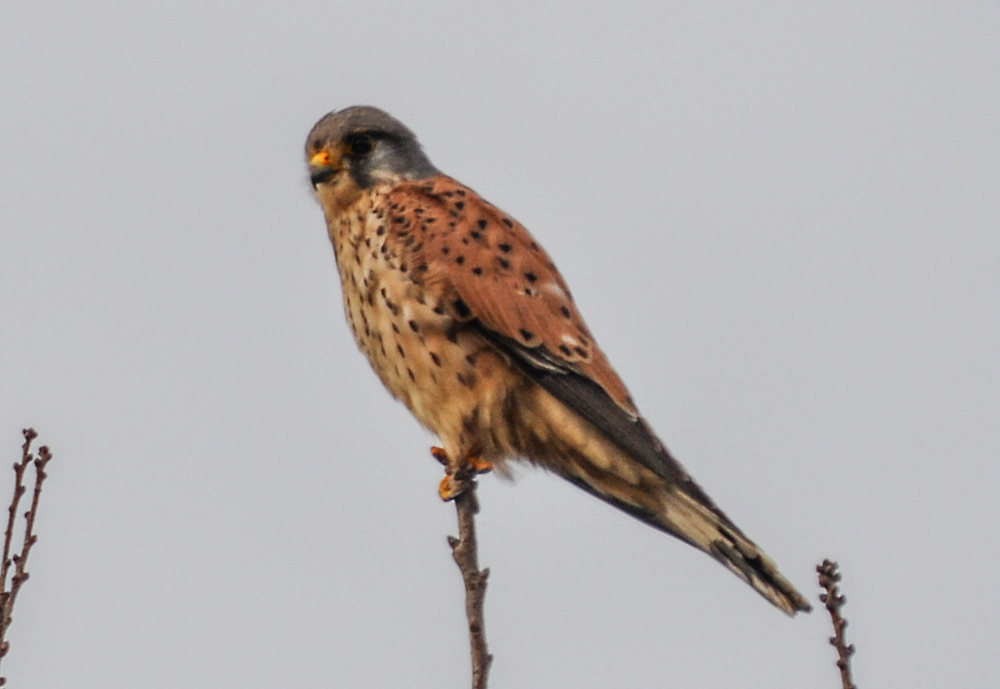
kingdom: Animalia
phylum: Chordata
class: Aves
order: Falconiformes
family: Falconidae
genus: Falco
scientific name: Falco tinnunculus
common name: Common kestrel
